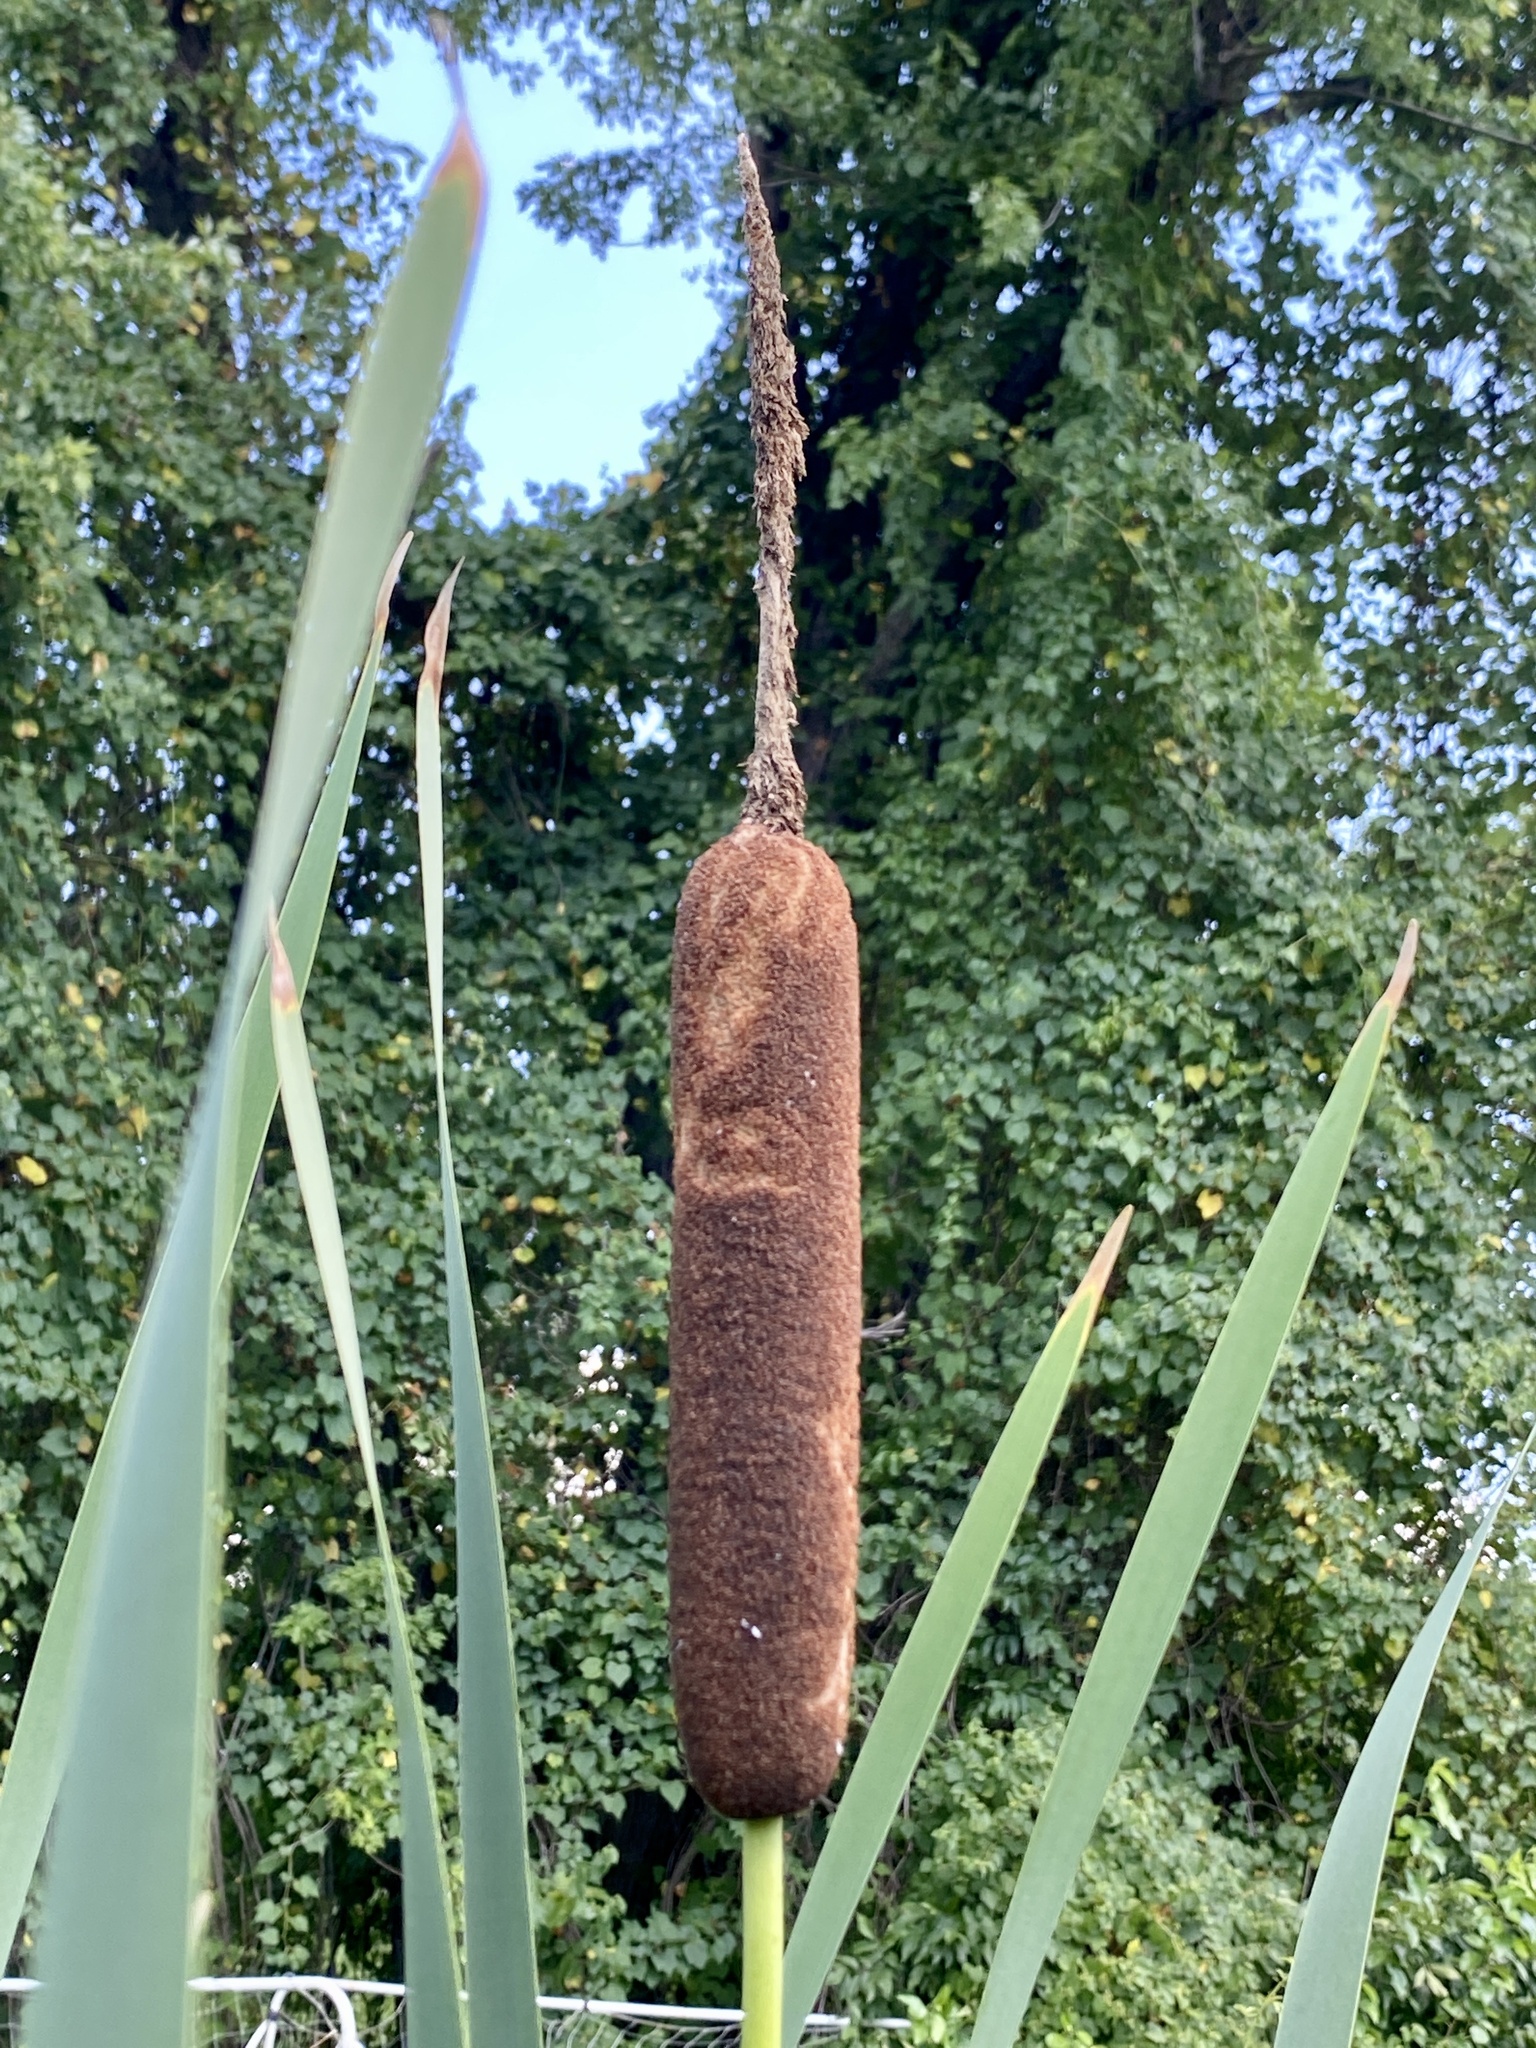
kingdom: Plantae
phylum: Tracheophyta
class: Liliopsida
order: Poales
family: Typhaceae
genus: Typha
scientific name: Typha latifolia
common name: Broadleaf cattail
